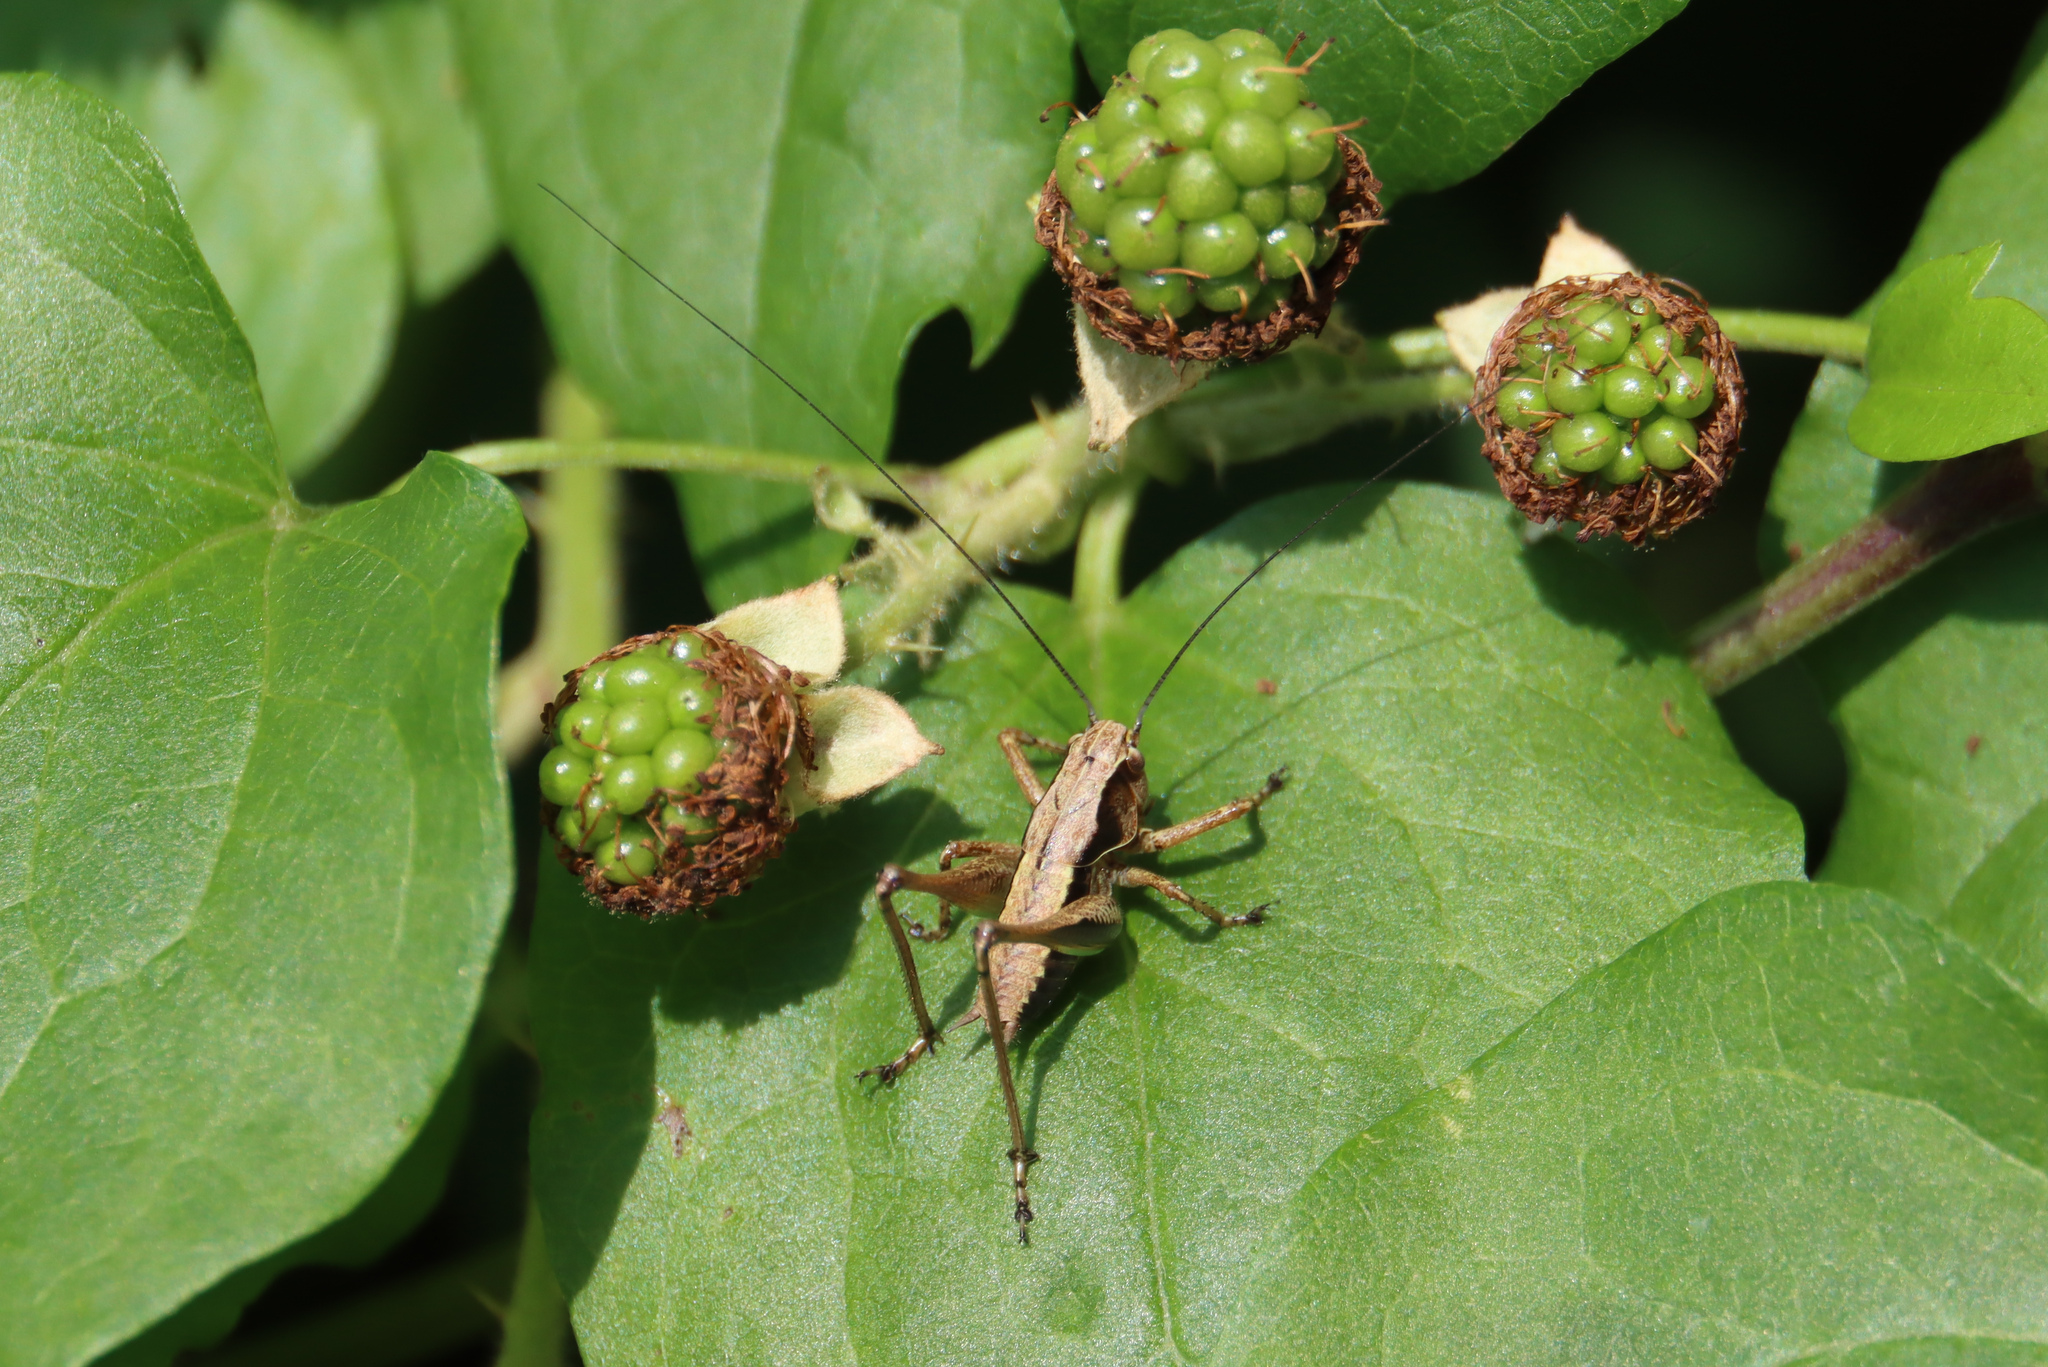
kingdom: Animalia
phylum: Arthropoda
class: Insecta
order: Orthoptera
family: Tettigoniidae
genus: Pholidoptera
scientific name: Pholidoptera griseoaptera
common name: Dark bush-cricket
